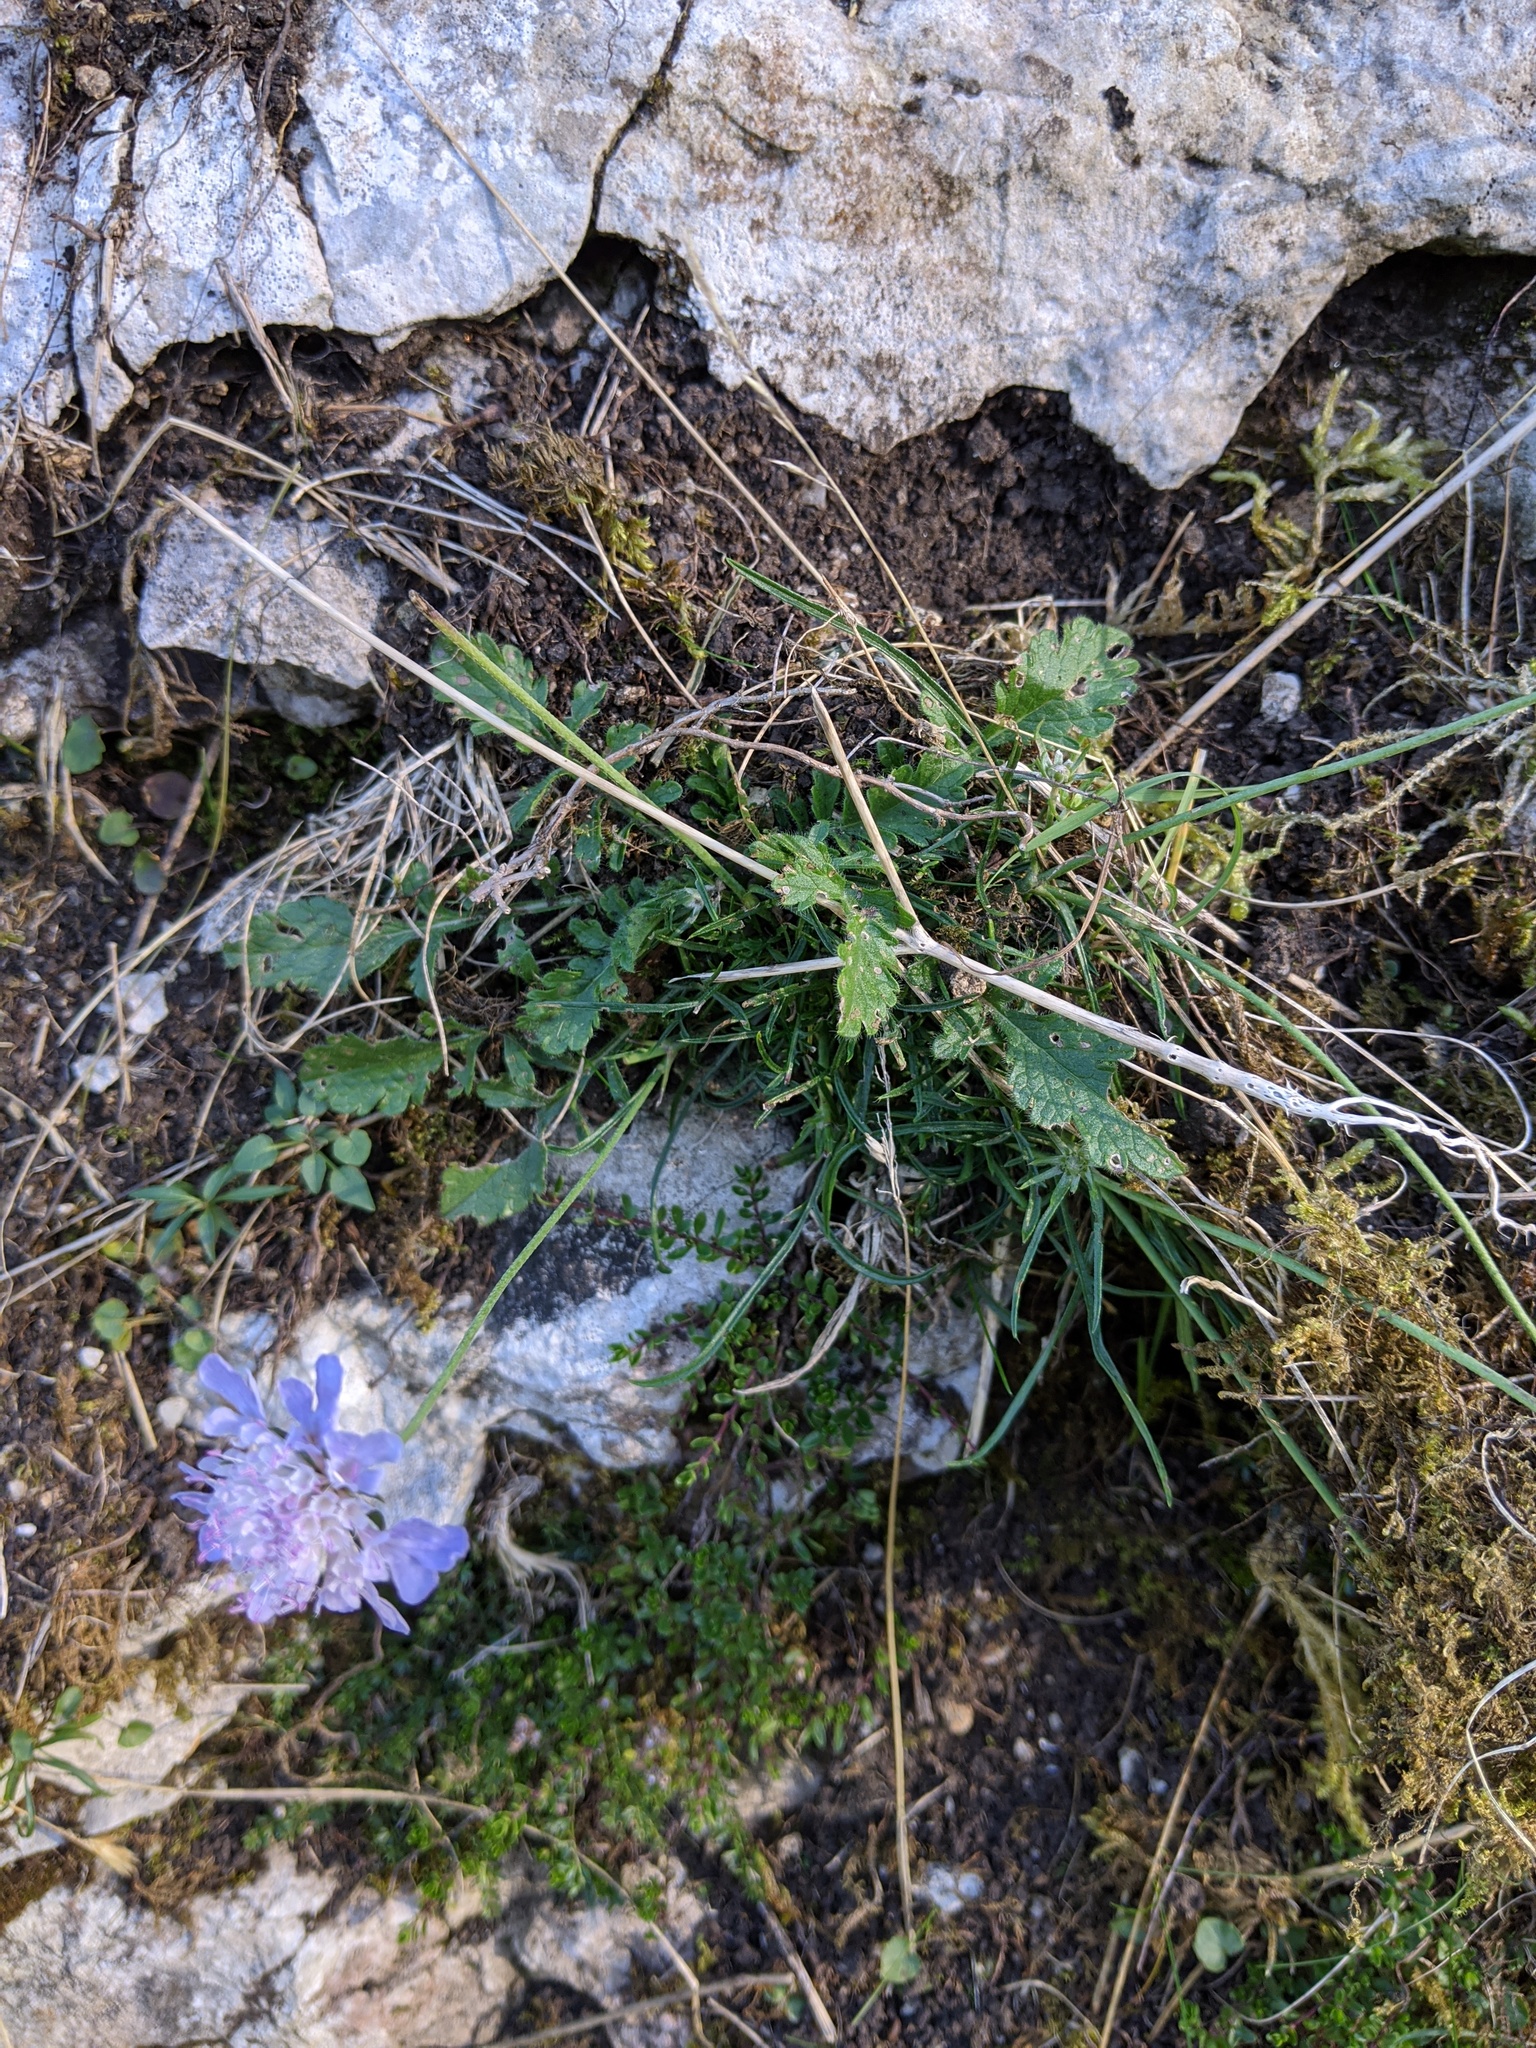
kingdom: Plantae
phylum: Tracheophyta
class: Magnoliopsida
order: Dipsacales
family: Caprifoliaceae
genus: Scabiosa
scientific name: Scabiosa columbaria
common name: Small scabious
